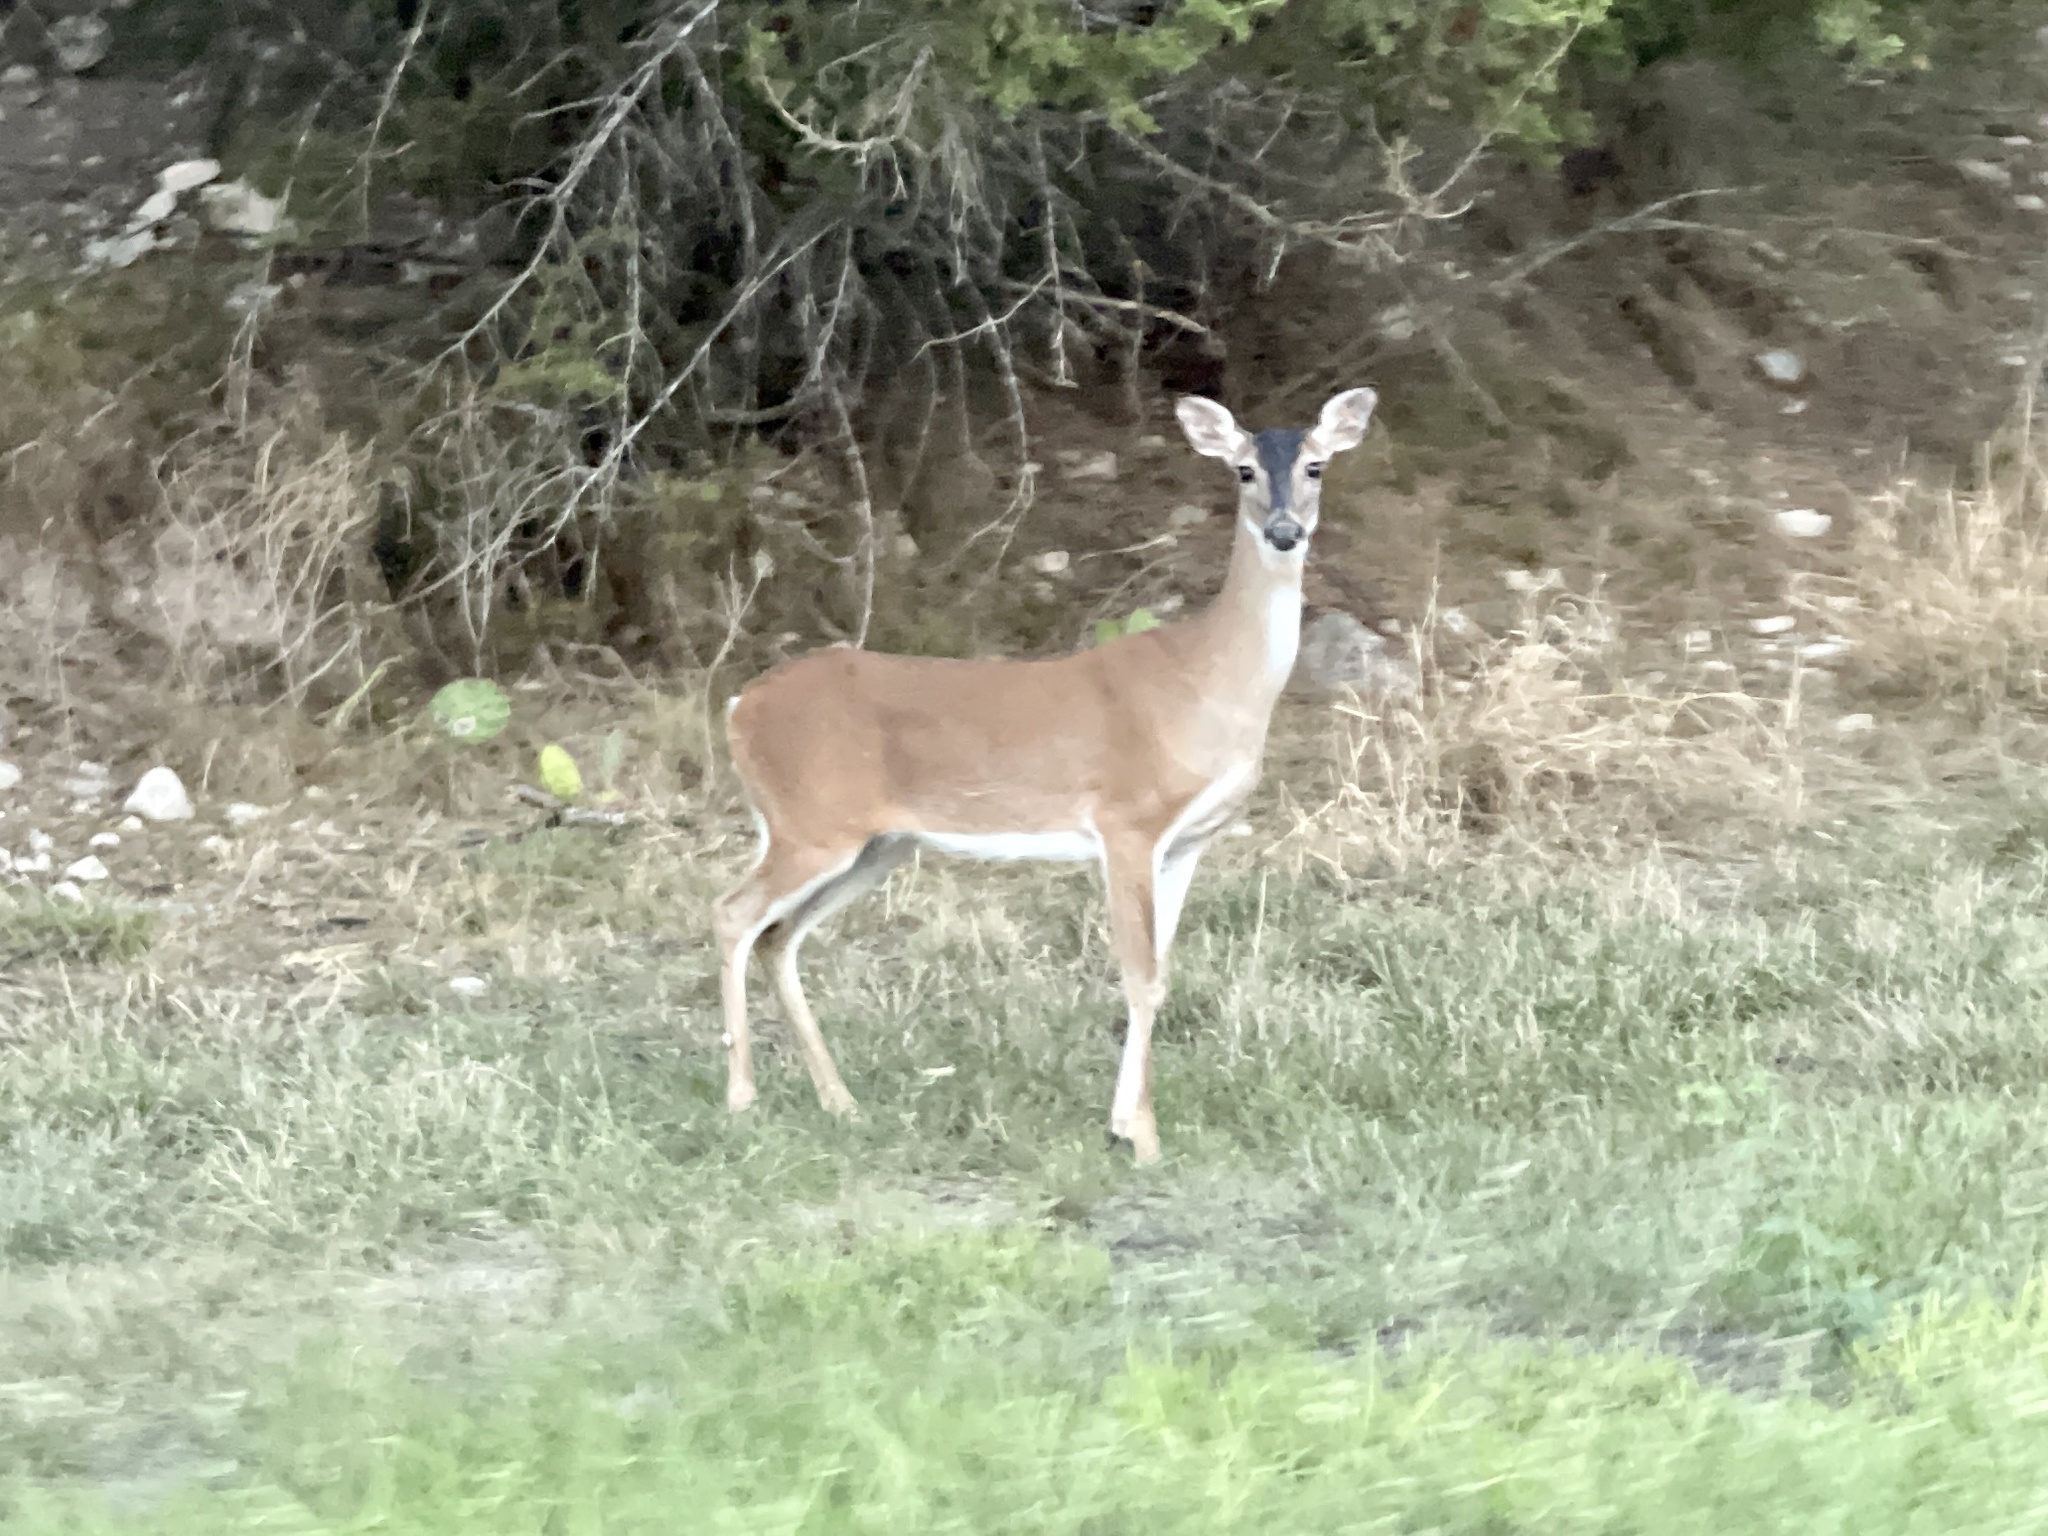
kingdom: Animalia
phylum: Chordata
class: Mammalia
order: Artiodactyla
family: Cervidae
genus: Odocoileus
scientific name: Odocoileus virginianus
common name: White-tailed deer
